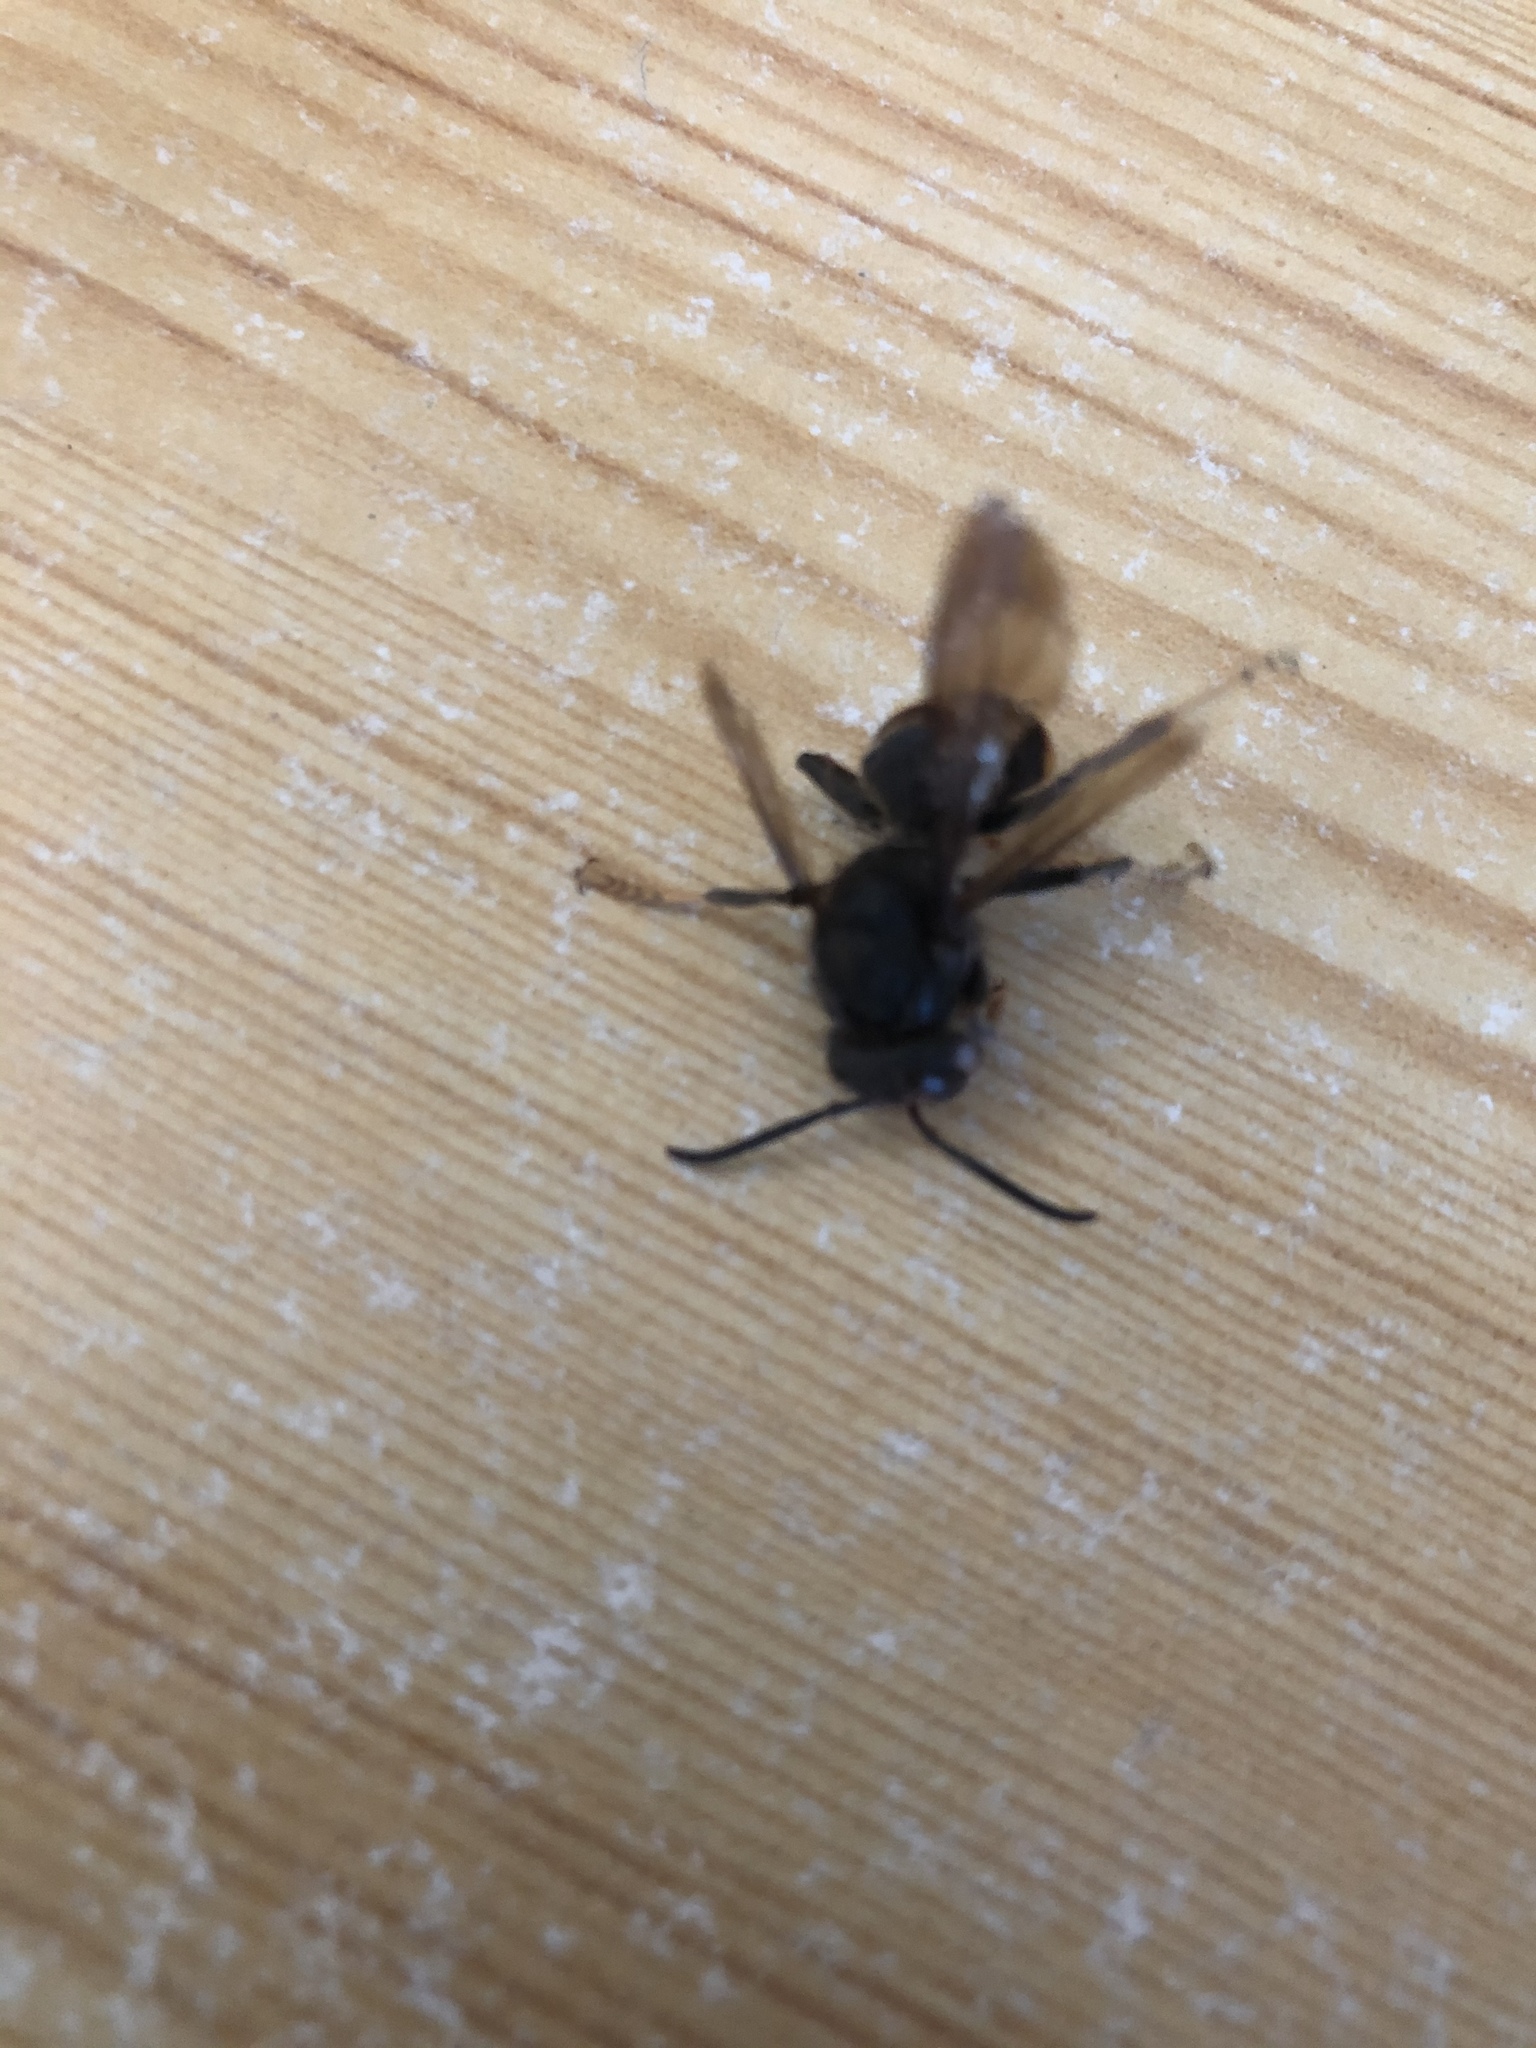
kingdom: Animalia
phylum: Arthropoda
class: Insecta
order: Hymenoptera
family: Vespidae
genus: Vespa
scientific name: Vespa velutina
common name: Asian hornet
